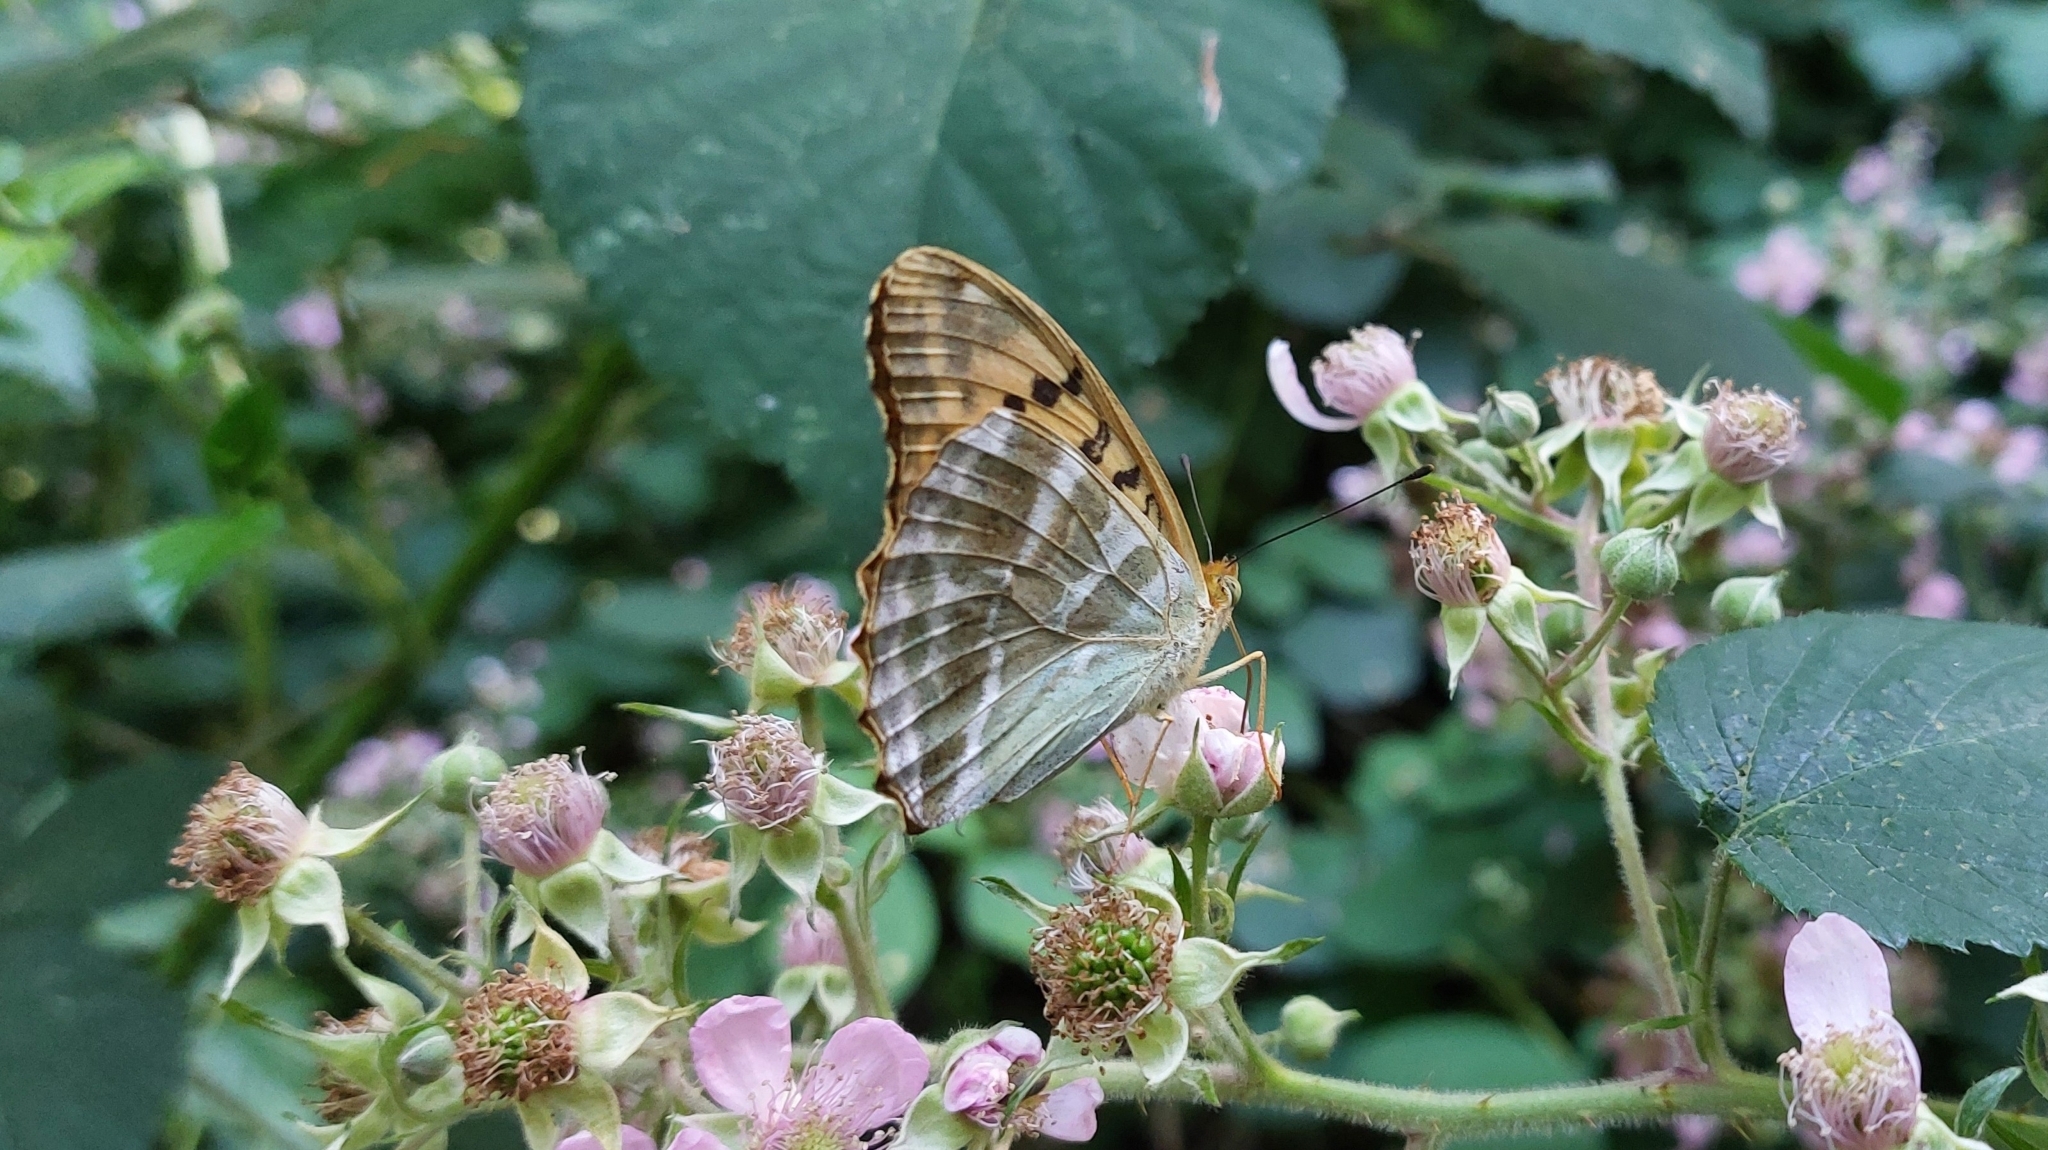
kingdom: Animalia
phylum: Arthropoda
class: Insecta
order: Lepidoptera
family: Nymphalidae
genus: Argynnis
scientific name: Argynnis paphia
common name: Silver-washed fritillary
